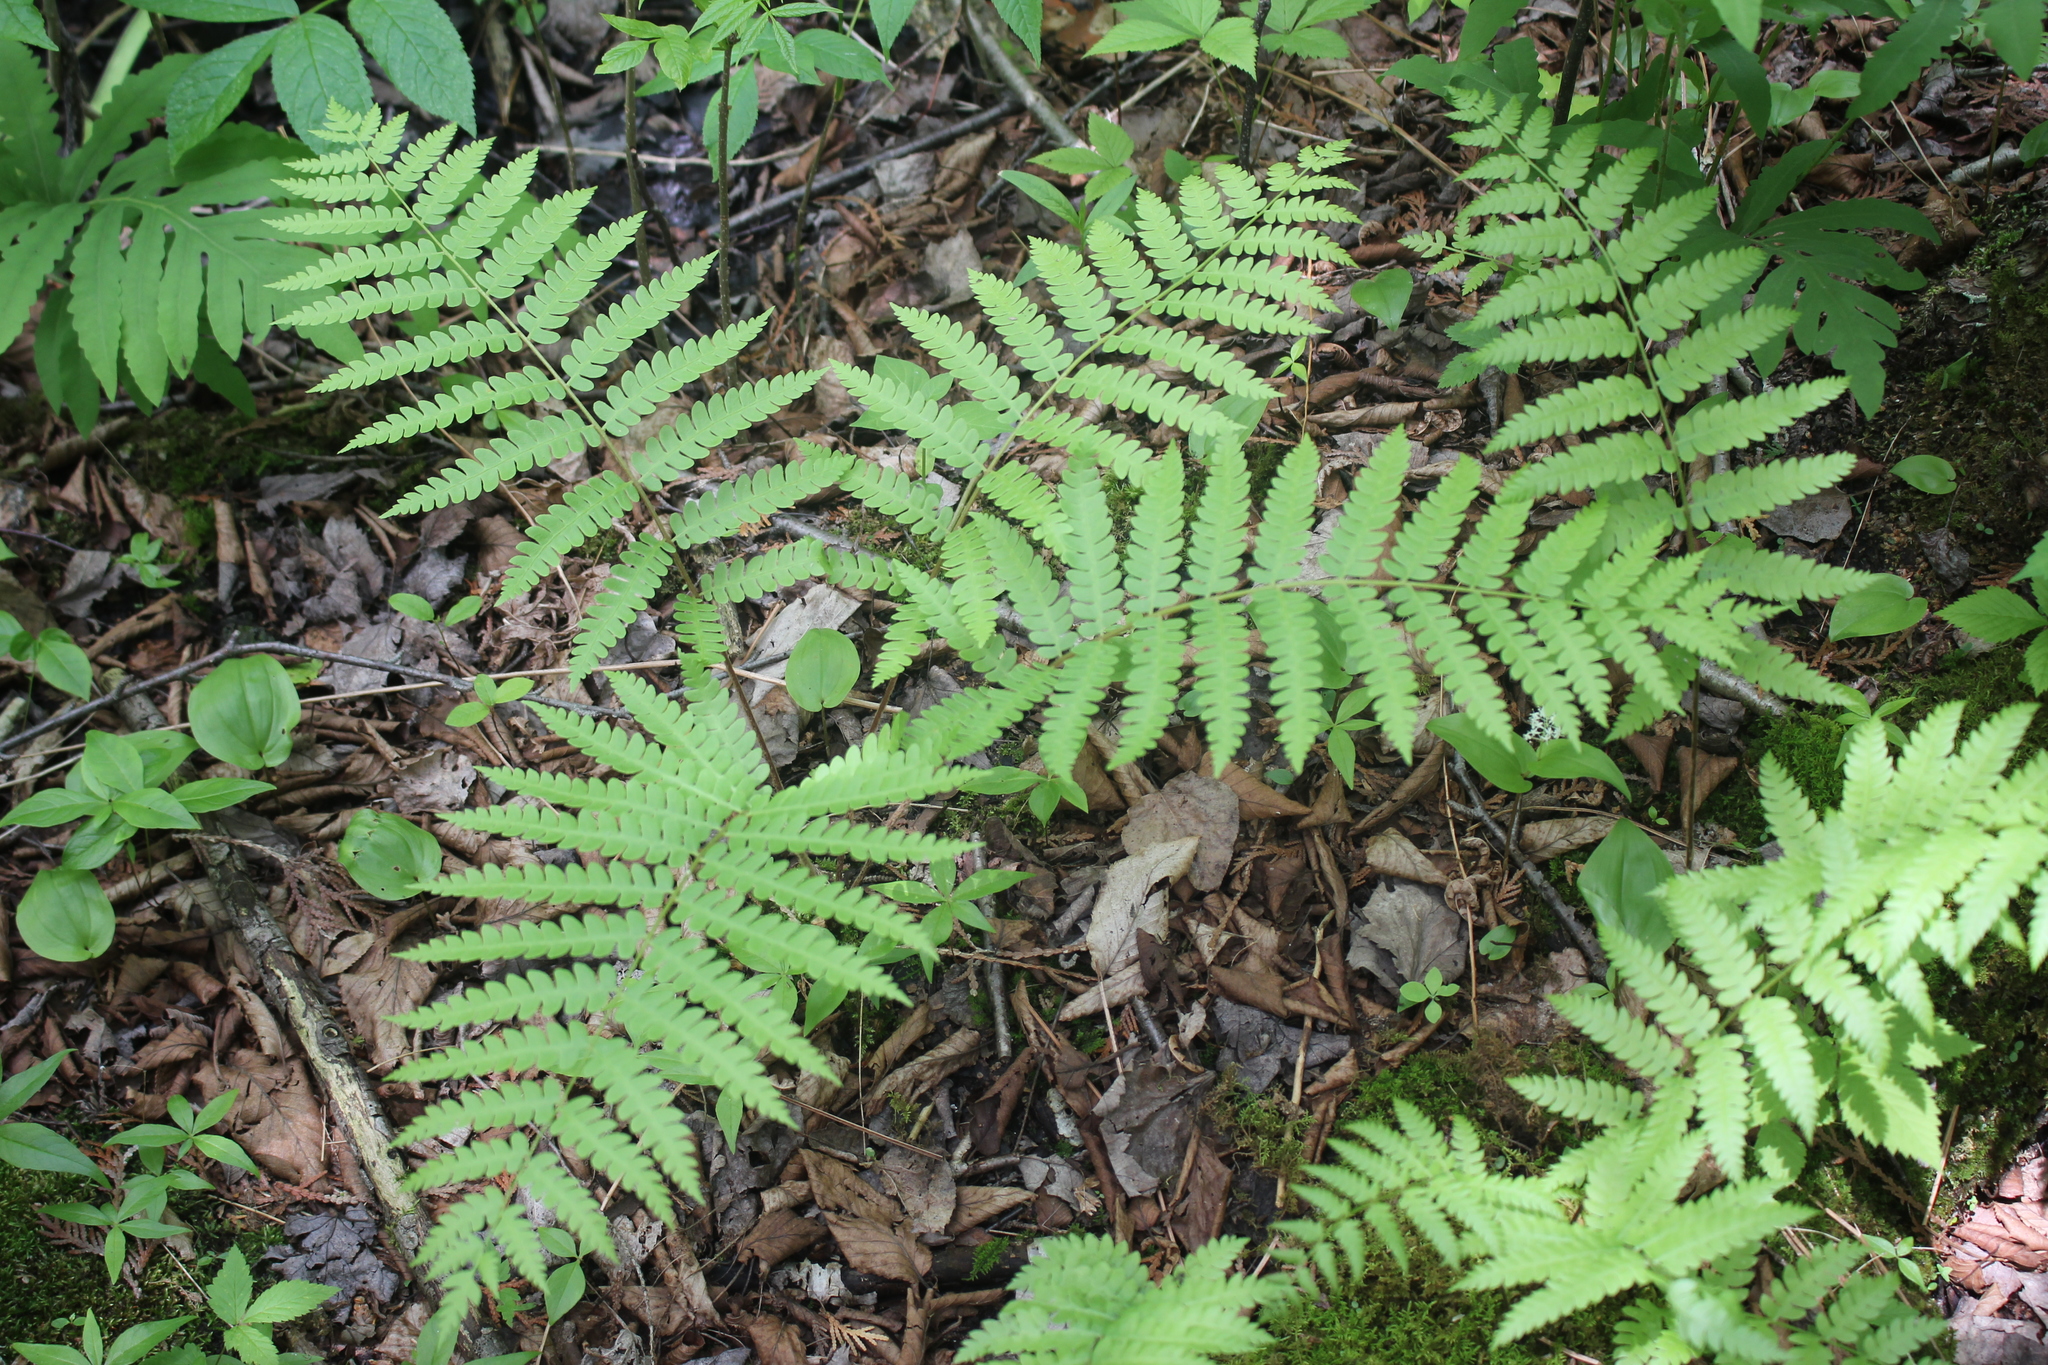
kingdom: Plantae
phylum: Tracheophyta
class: Polypodiopsida
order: Osmundales
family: Osmundaceae
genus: Osmundastrum
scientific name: Osmundastrum cinnamomeum
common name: Cinnamon fern
